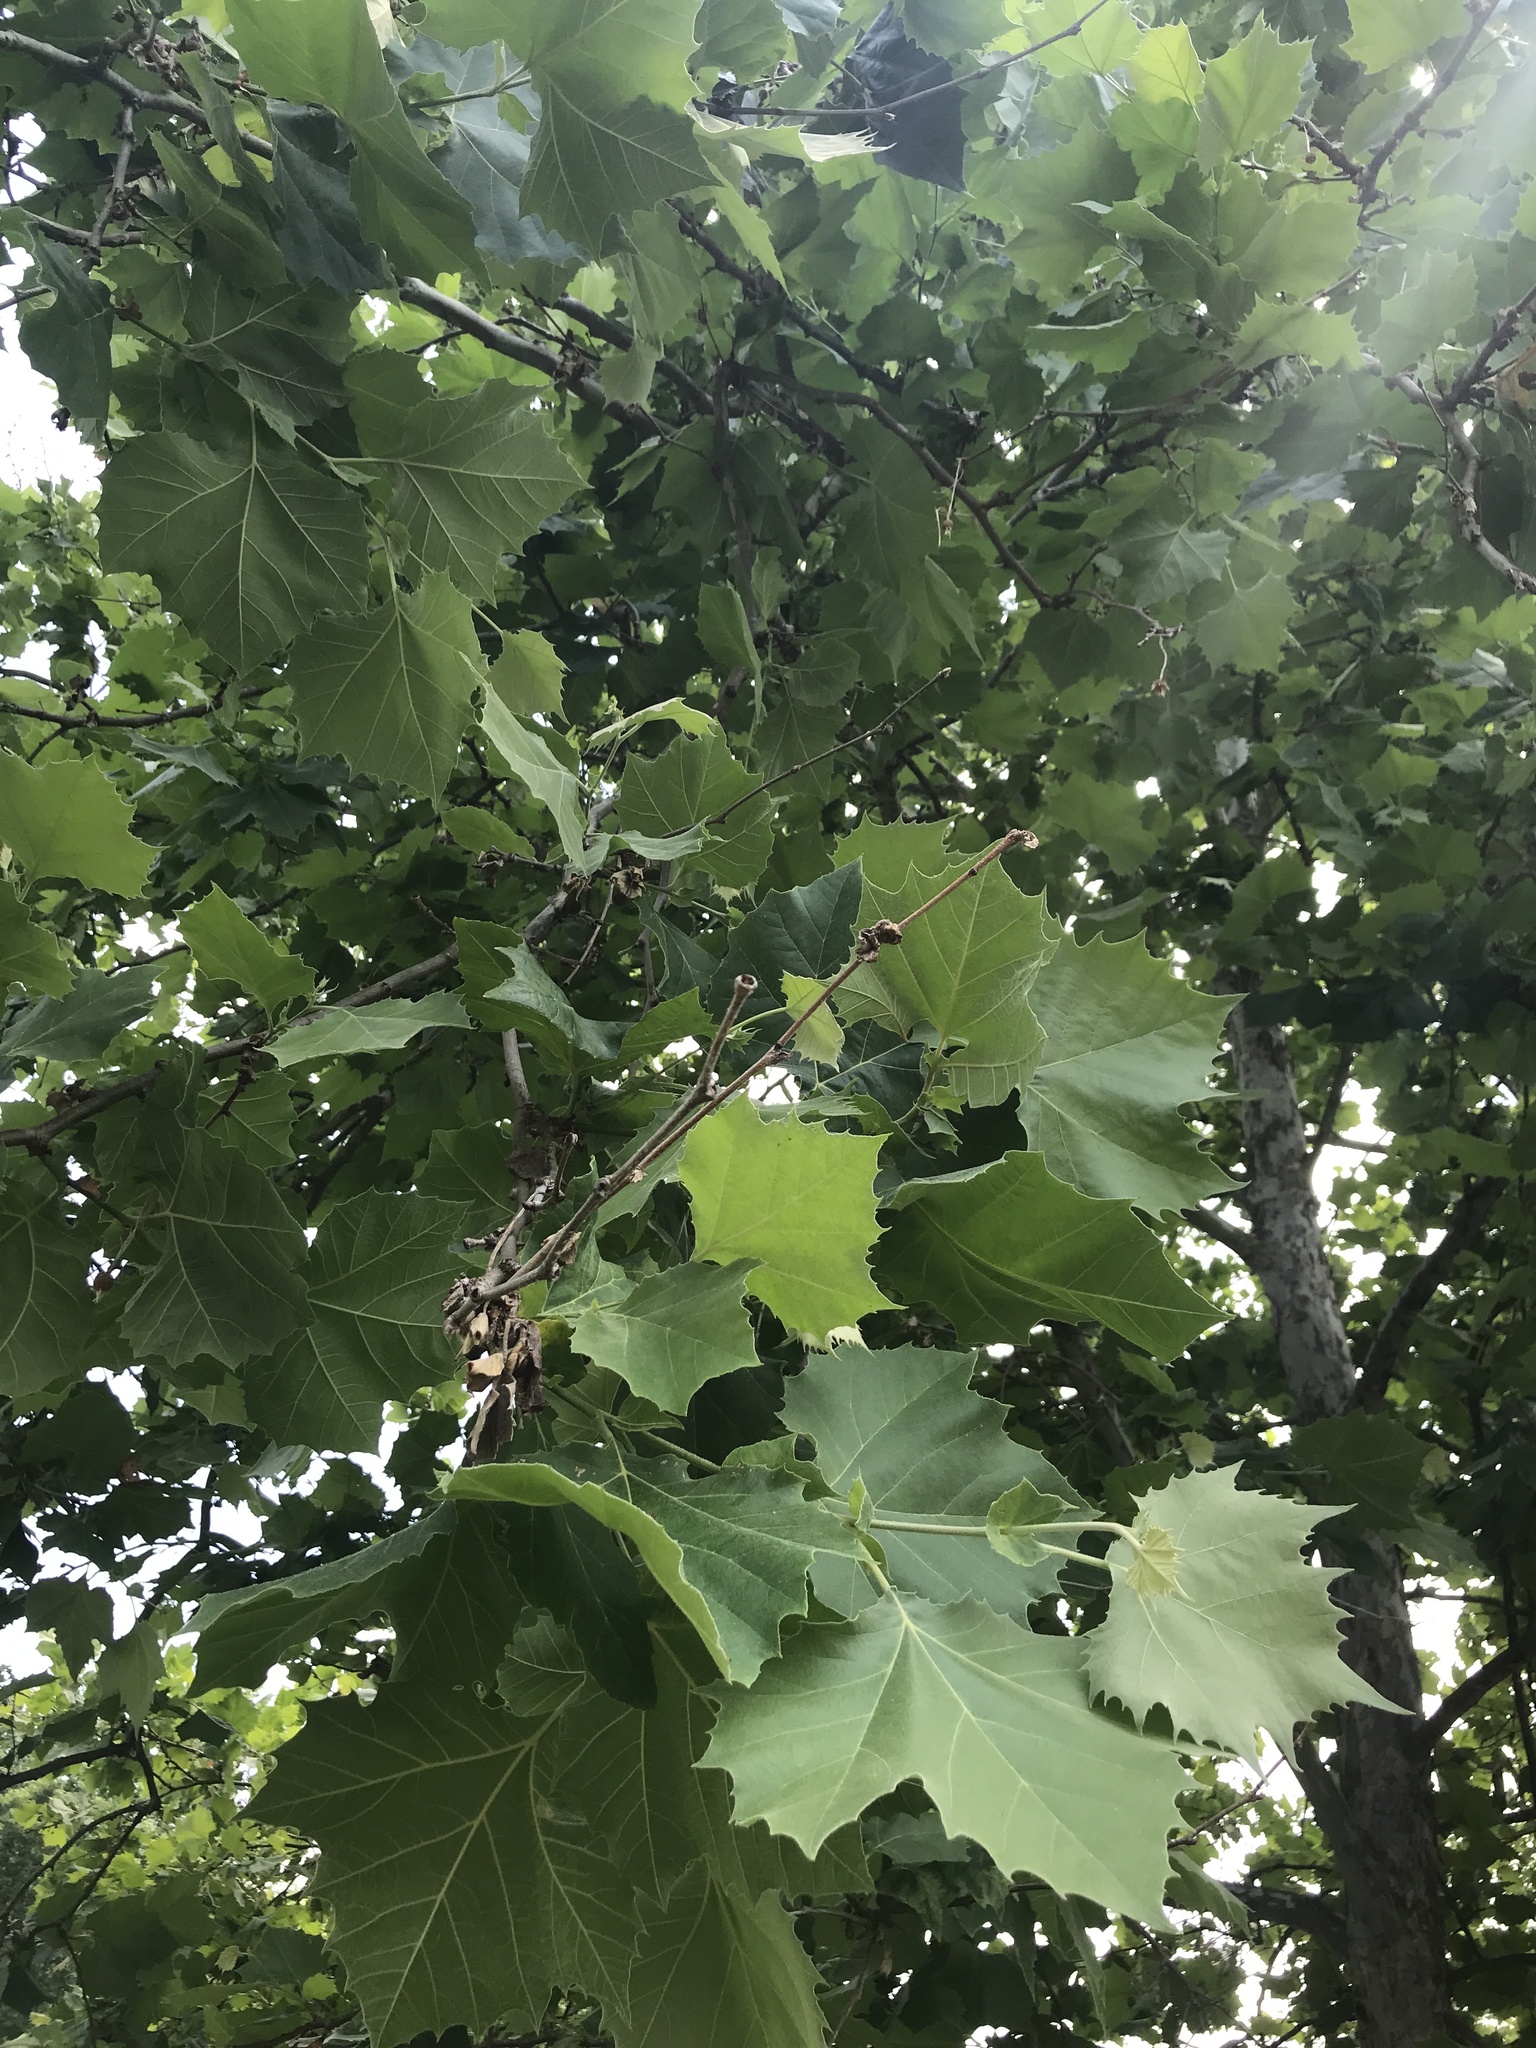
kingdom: Plantae
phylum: Tracheophyta
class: Magnoliopsida
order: Proteales
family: Platanaceae
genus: Platanus
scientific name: Platanus occidentalis
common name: American sycamore
